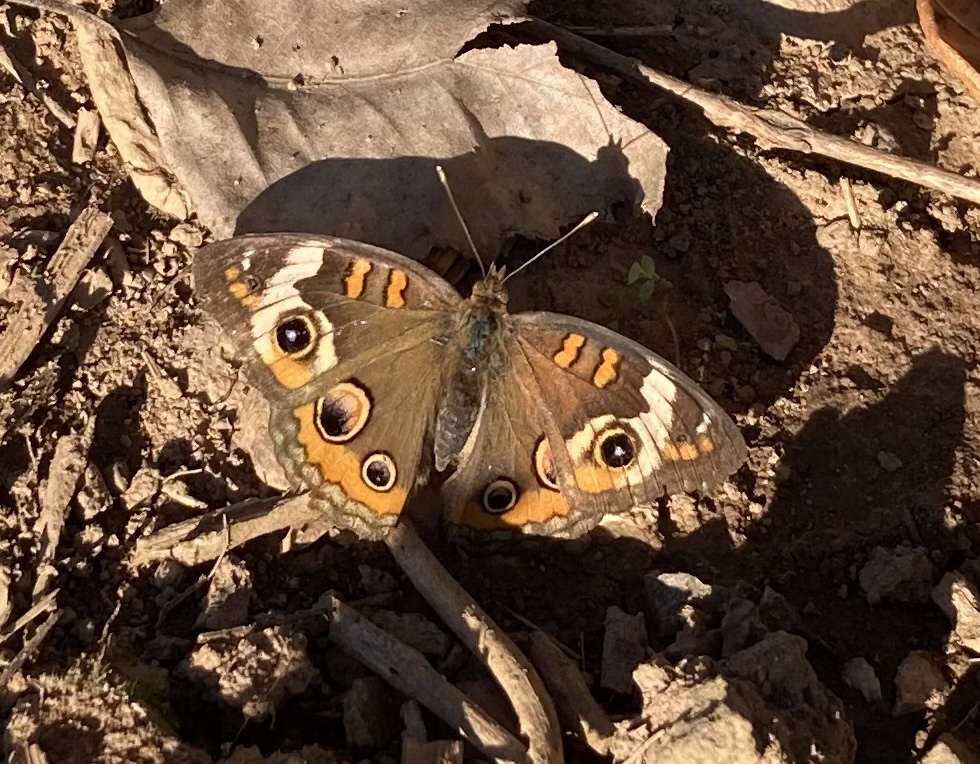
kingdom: Animalia
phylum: Arthropoda
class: Insecta
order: Lepidoptera
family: Nymphalidae
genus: Junonia
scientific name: Junonia coenia
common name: Common buckeye
